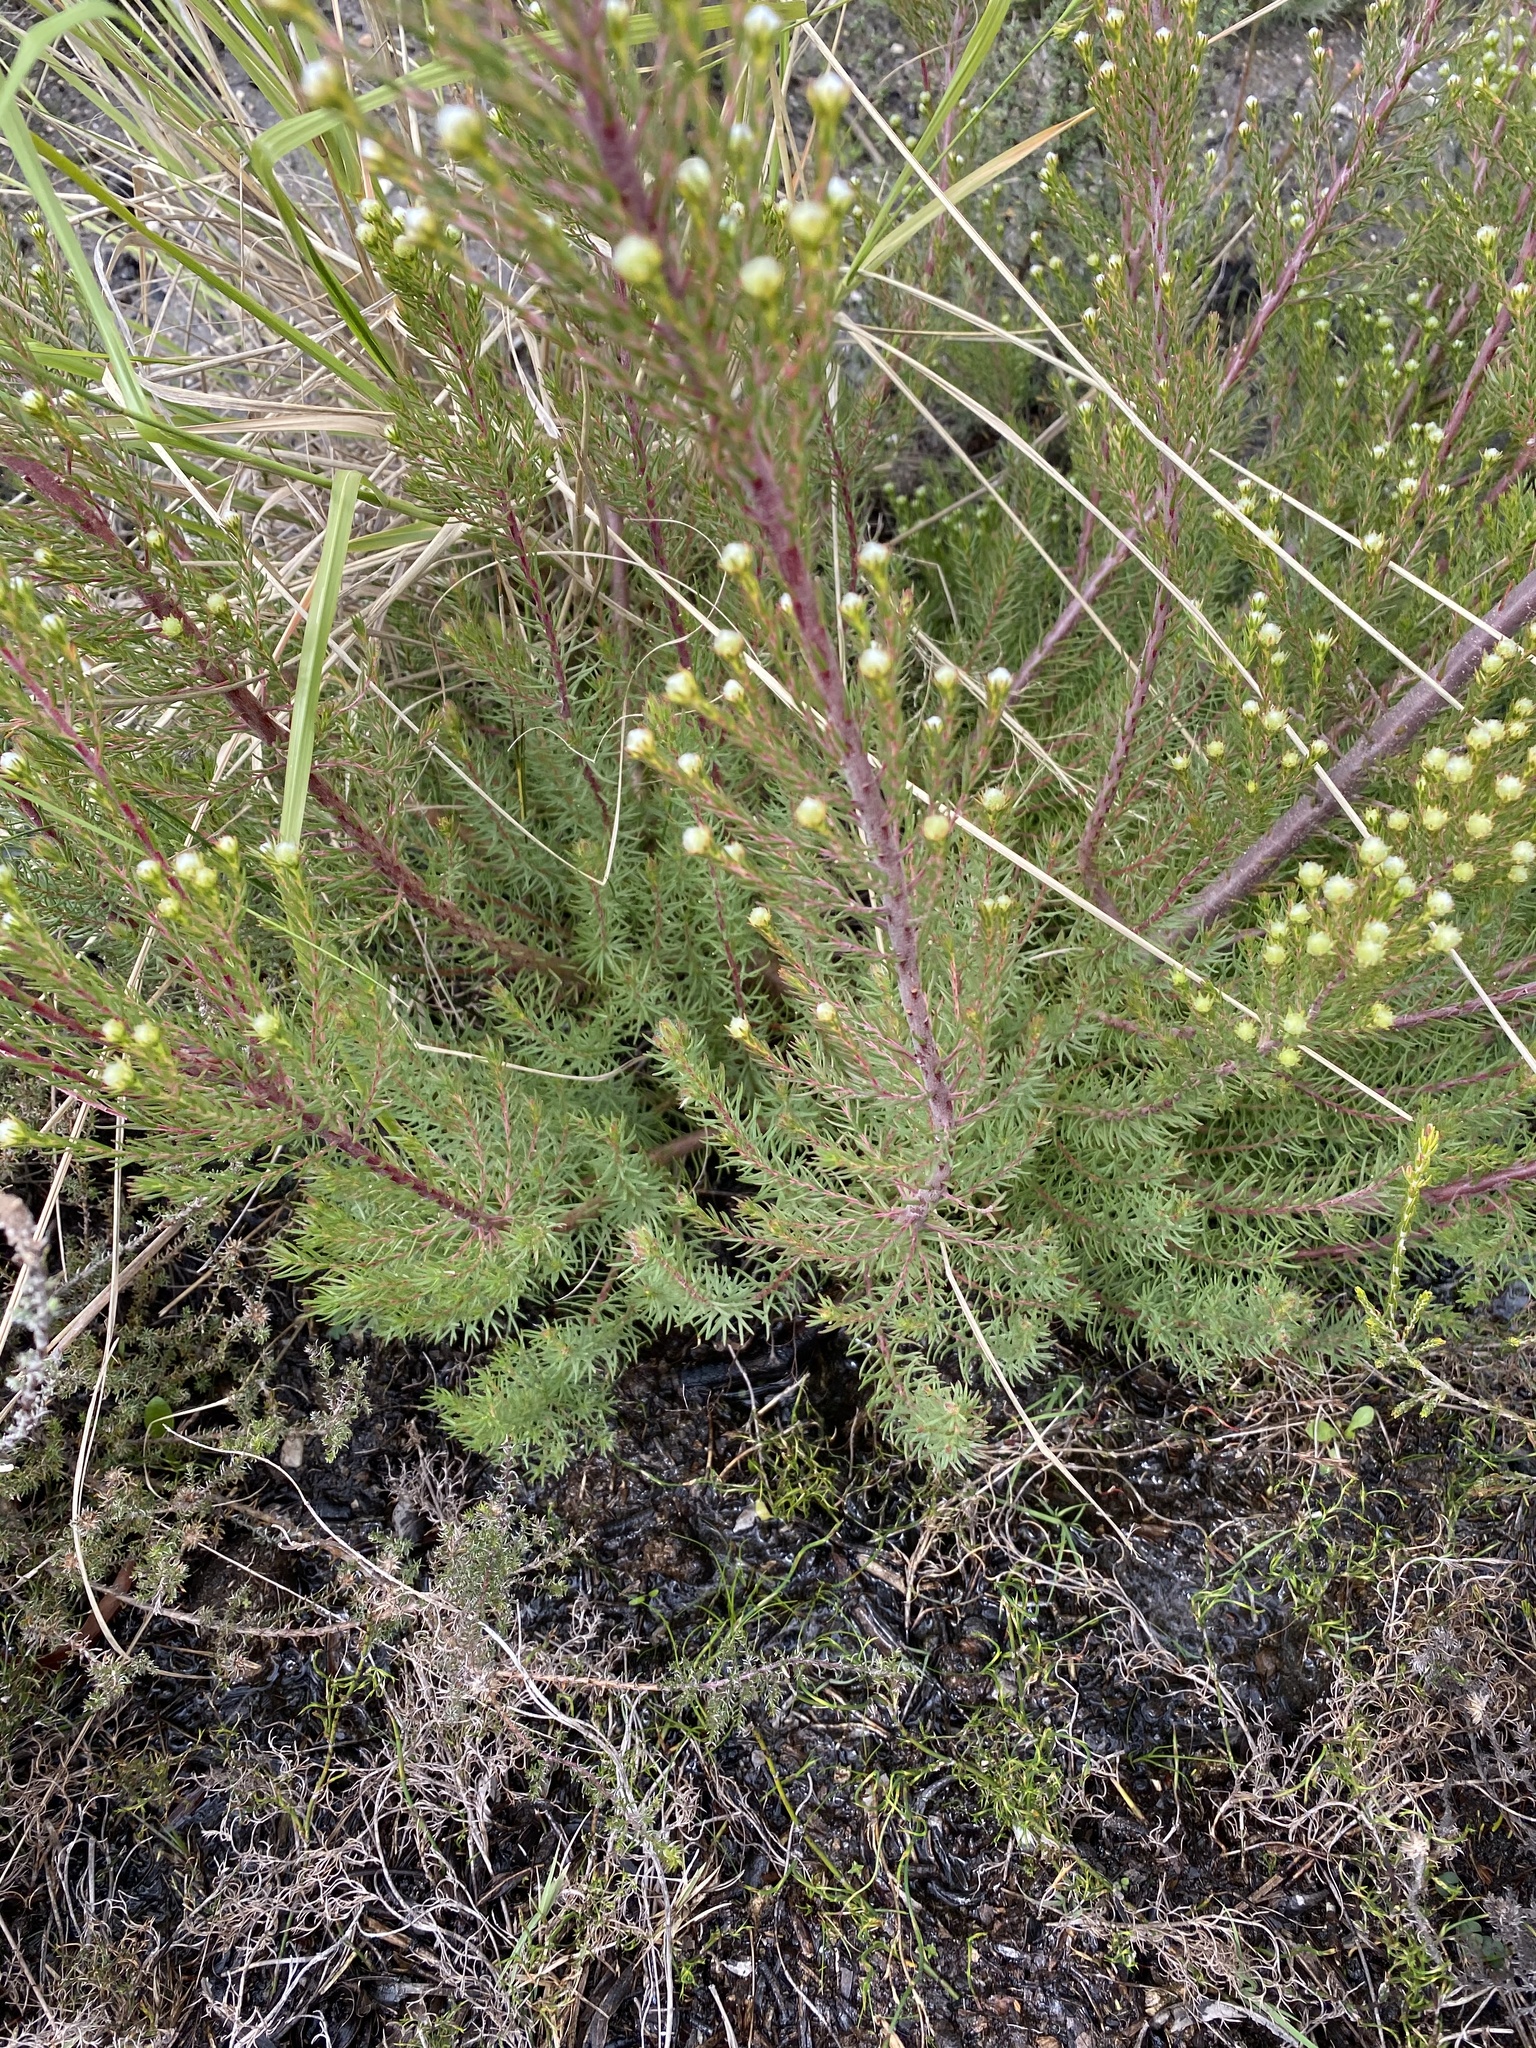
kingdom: Plantae
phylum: Tracheophyta
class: Magnoliopsida
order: Proteales
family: Proteaceae
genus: Leucadendron
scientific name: Leucadendron laxum
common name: Bredasdorp conebush
